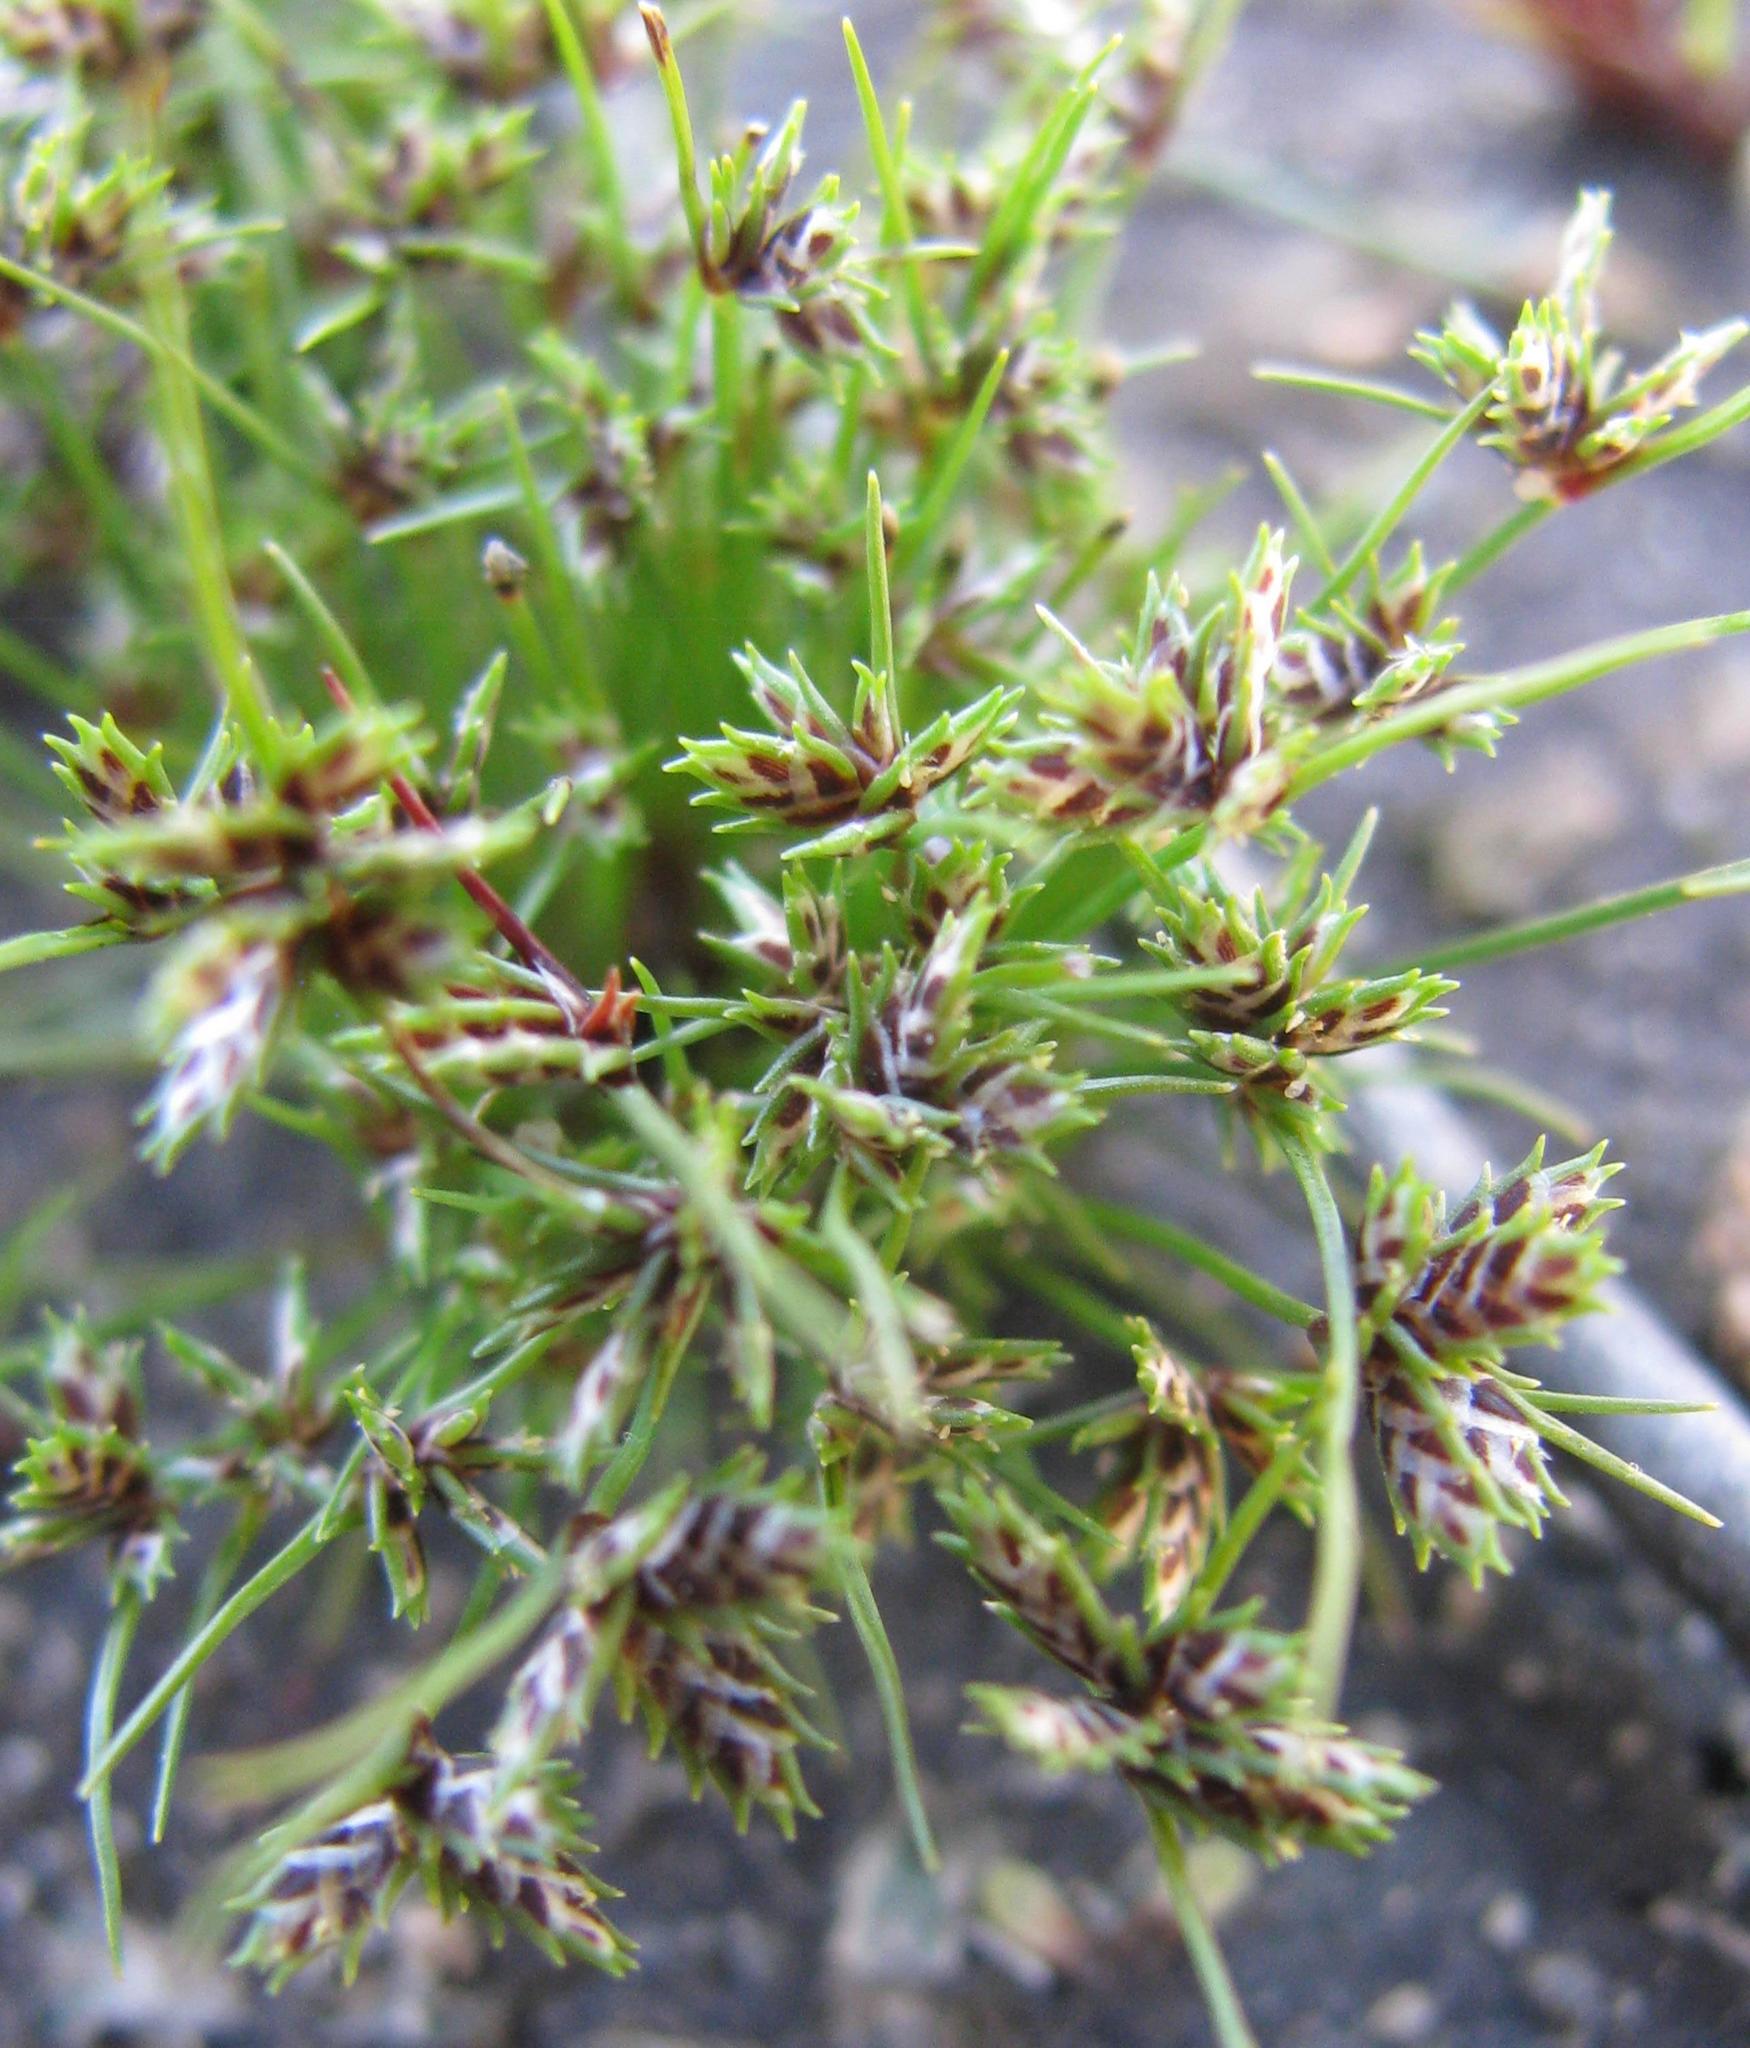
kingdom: Plantae
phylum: Tracheophyta
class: Liliopsida
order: Poales
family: Cyperaceae
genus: Ficinia
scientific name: Ficinia leucoloma
